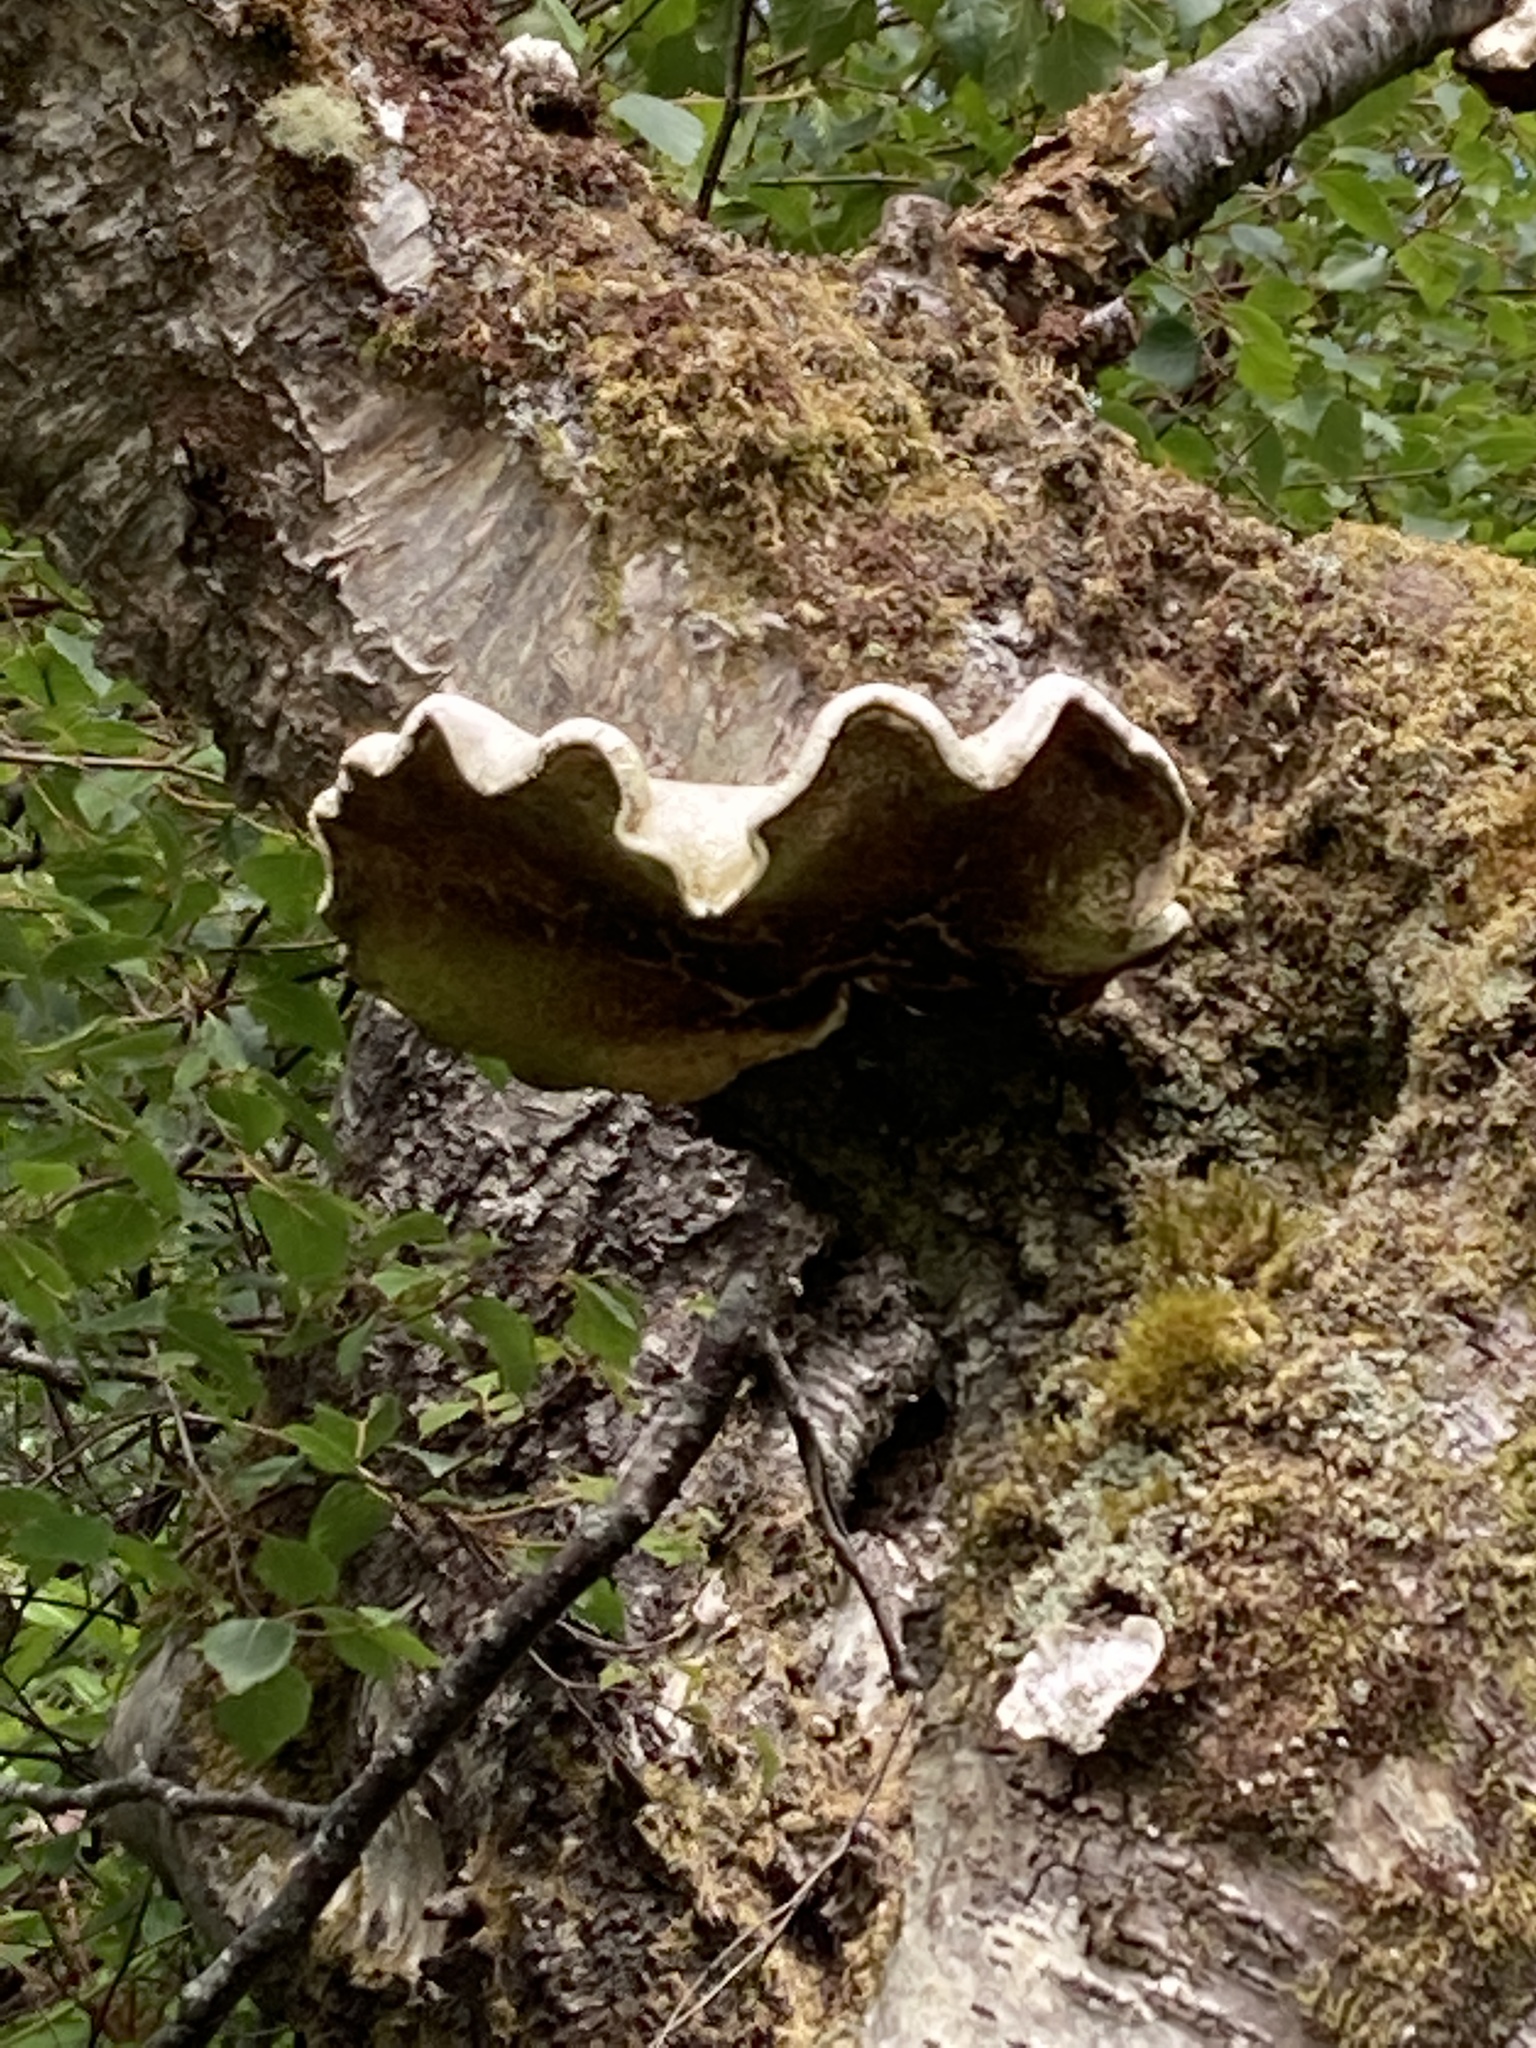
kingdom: Fungi
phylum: Basidiomycota
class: Agaricomycetes
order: Polyporales
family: Fomitopsidaceae
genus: Fomitopsis
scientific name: Fomitopsis betulina
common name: Birch polypore
